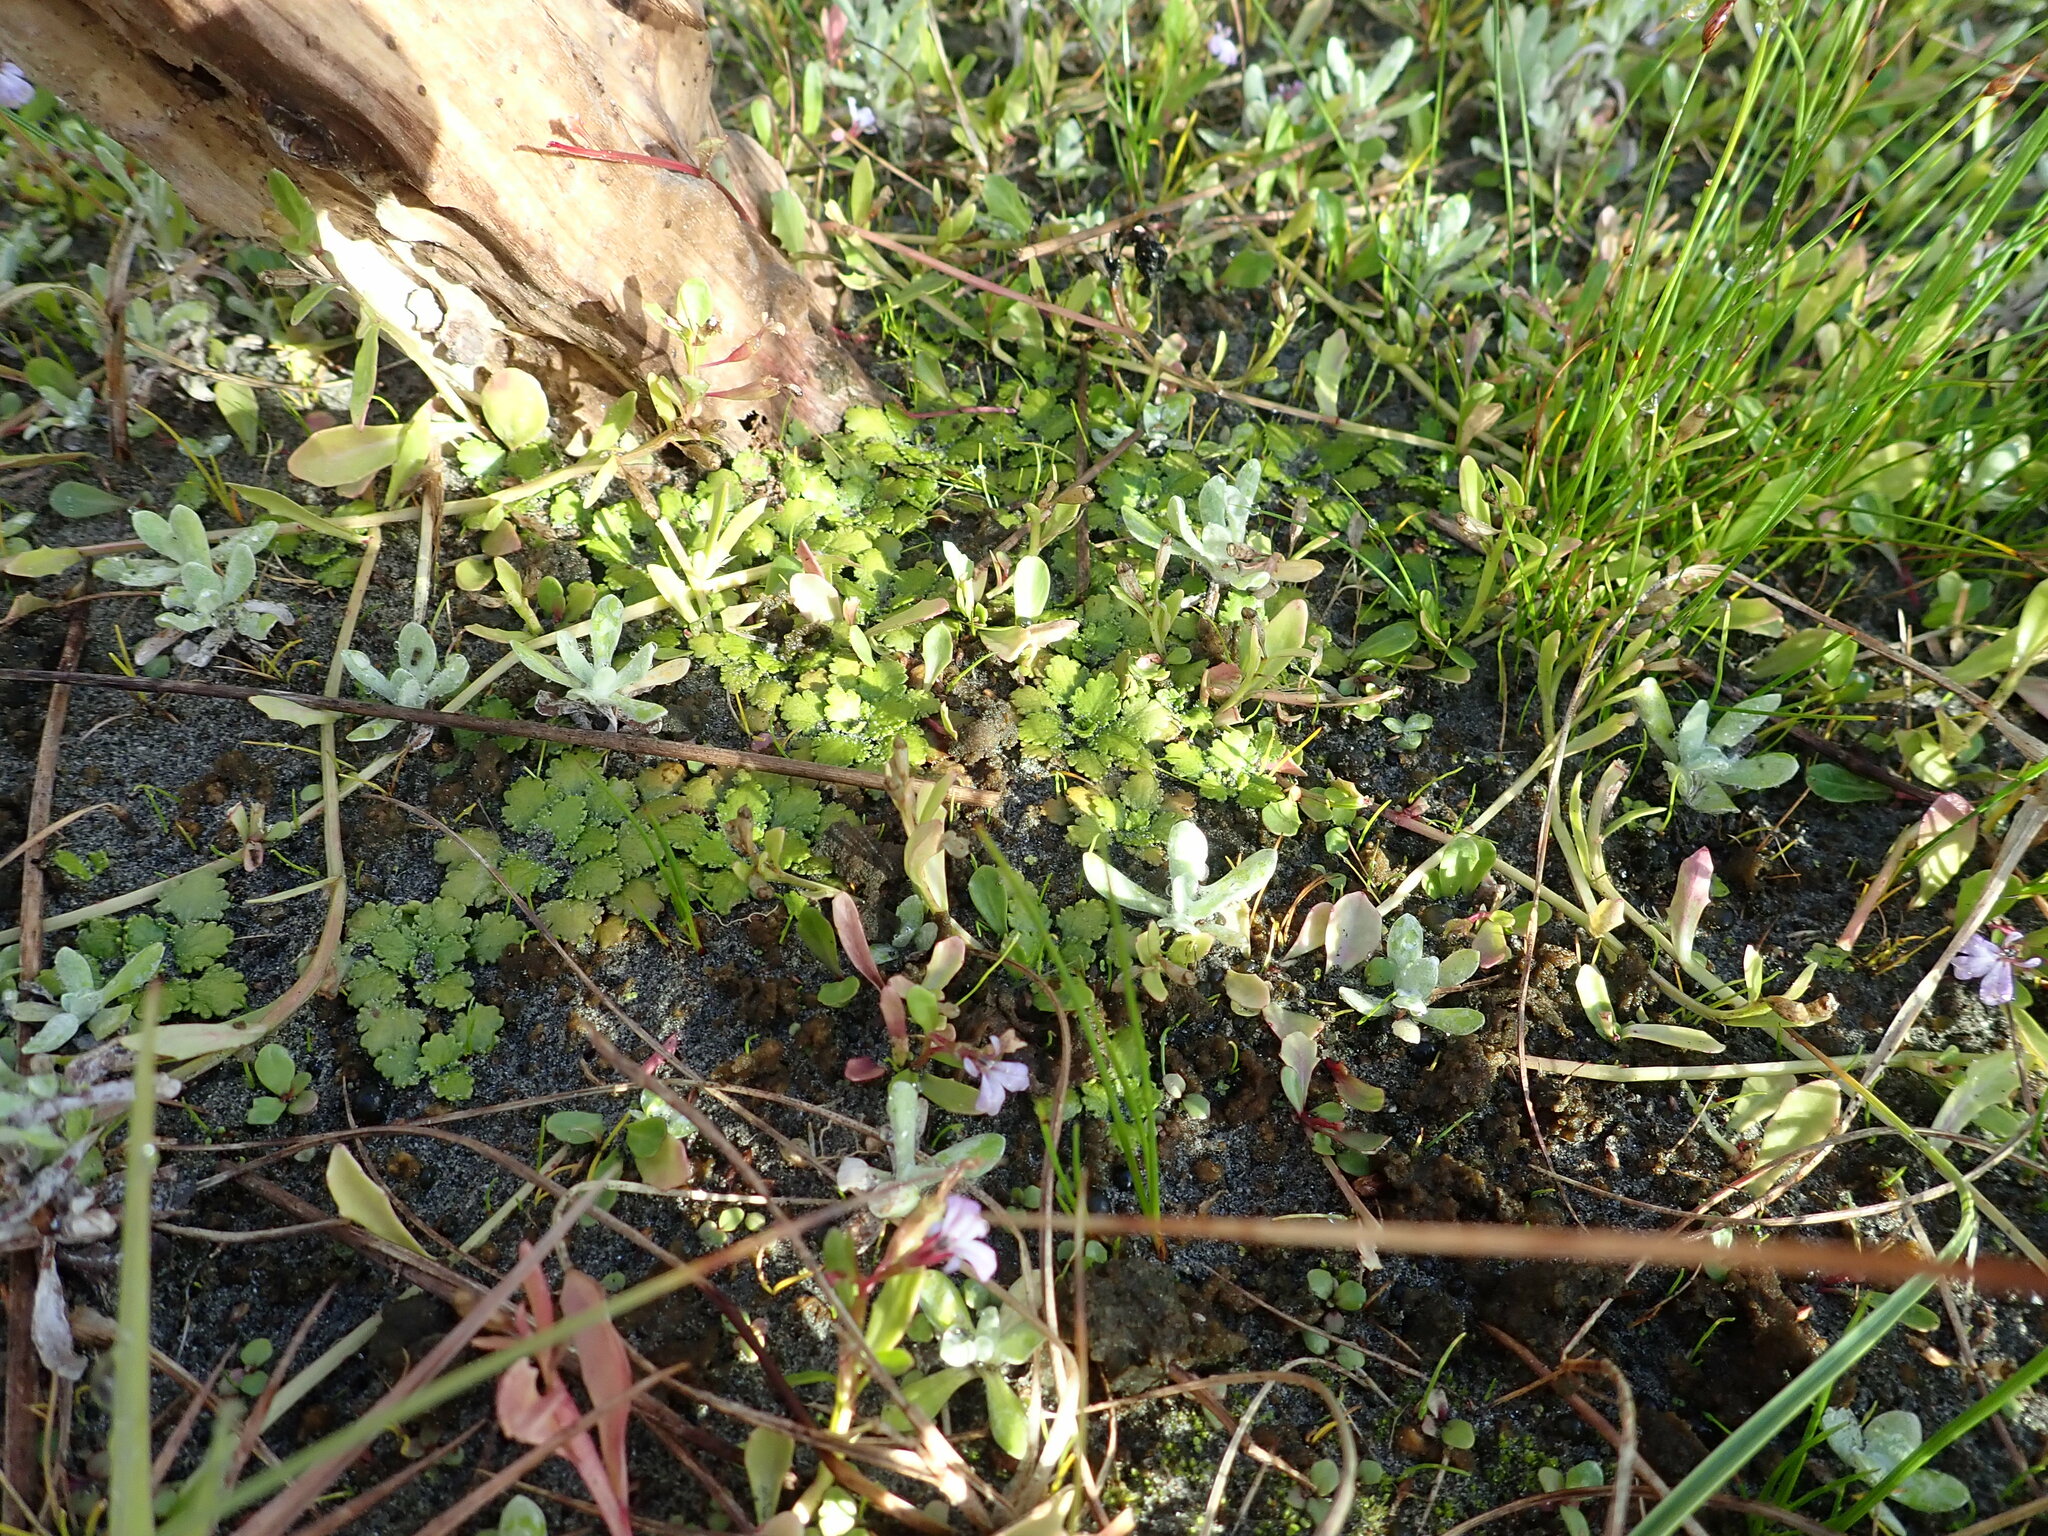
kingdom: Plantae
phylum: Tracheophyta
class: Magnoliopsida
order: Gunnerales
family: Gunneraceae
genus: Gunnera
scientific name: Gunnera dentata
